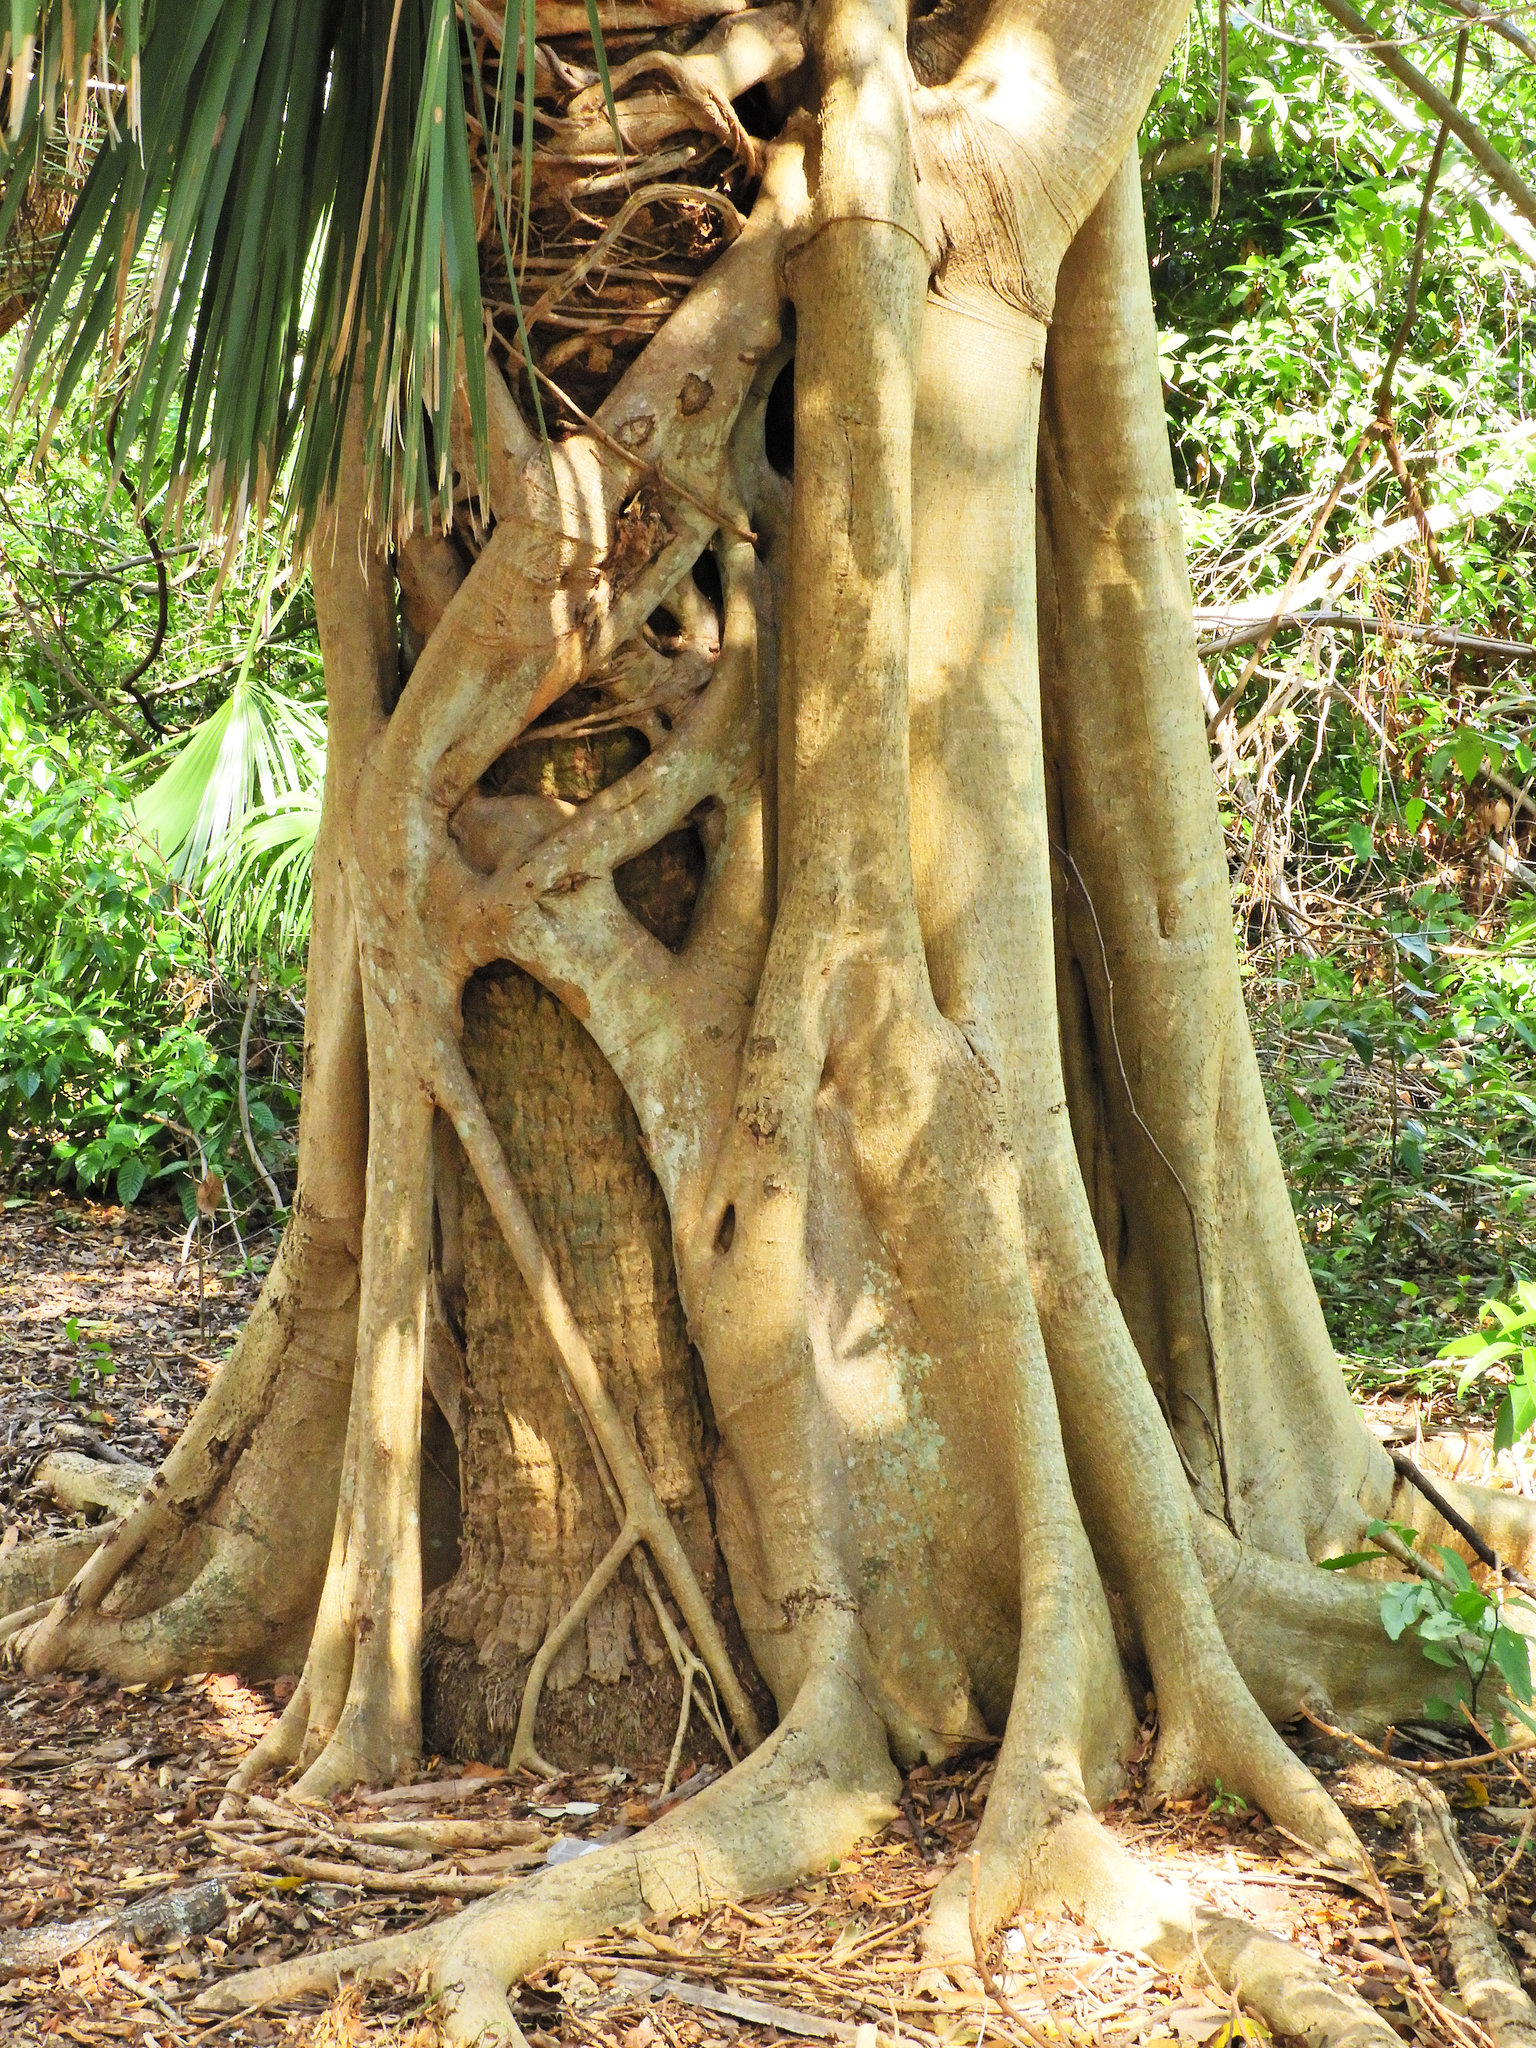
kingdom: Plantae
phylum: Tracheophyta
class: Magnoliopsida
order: Rosales
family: Moraceae
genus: Ficus
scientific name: Ficus aurea
